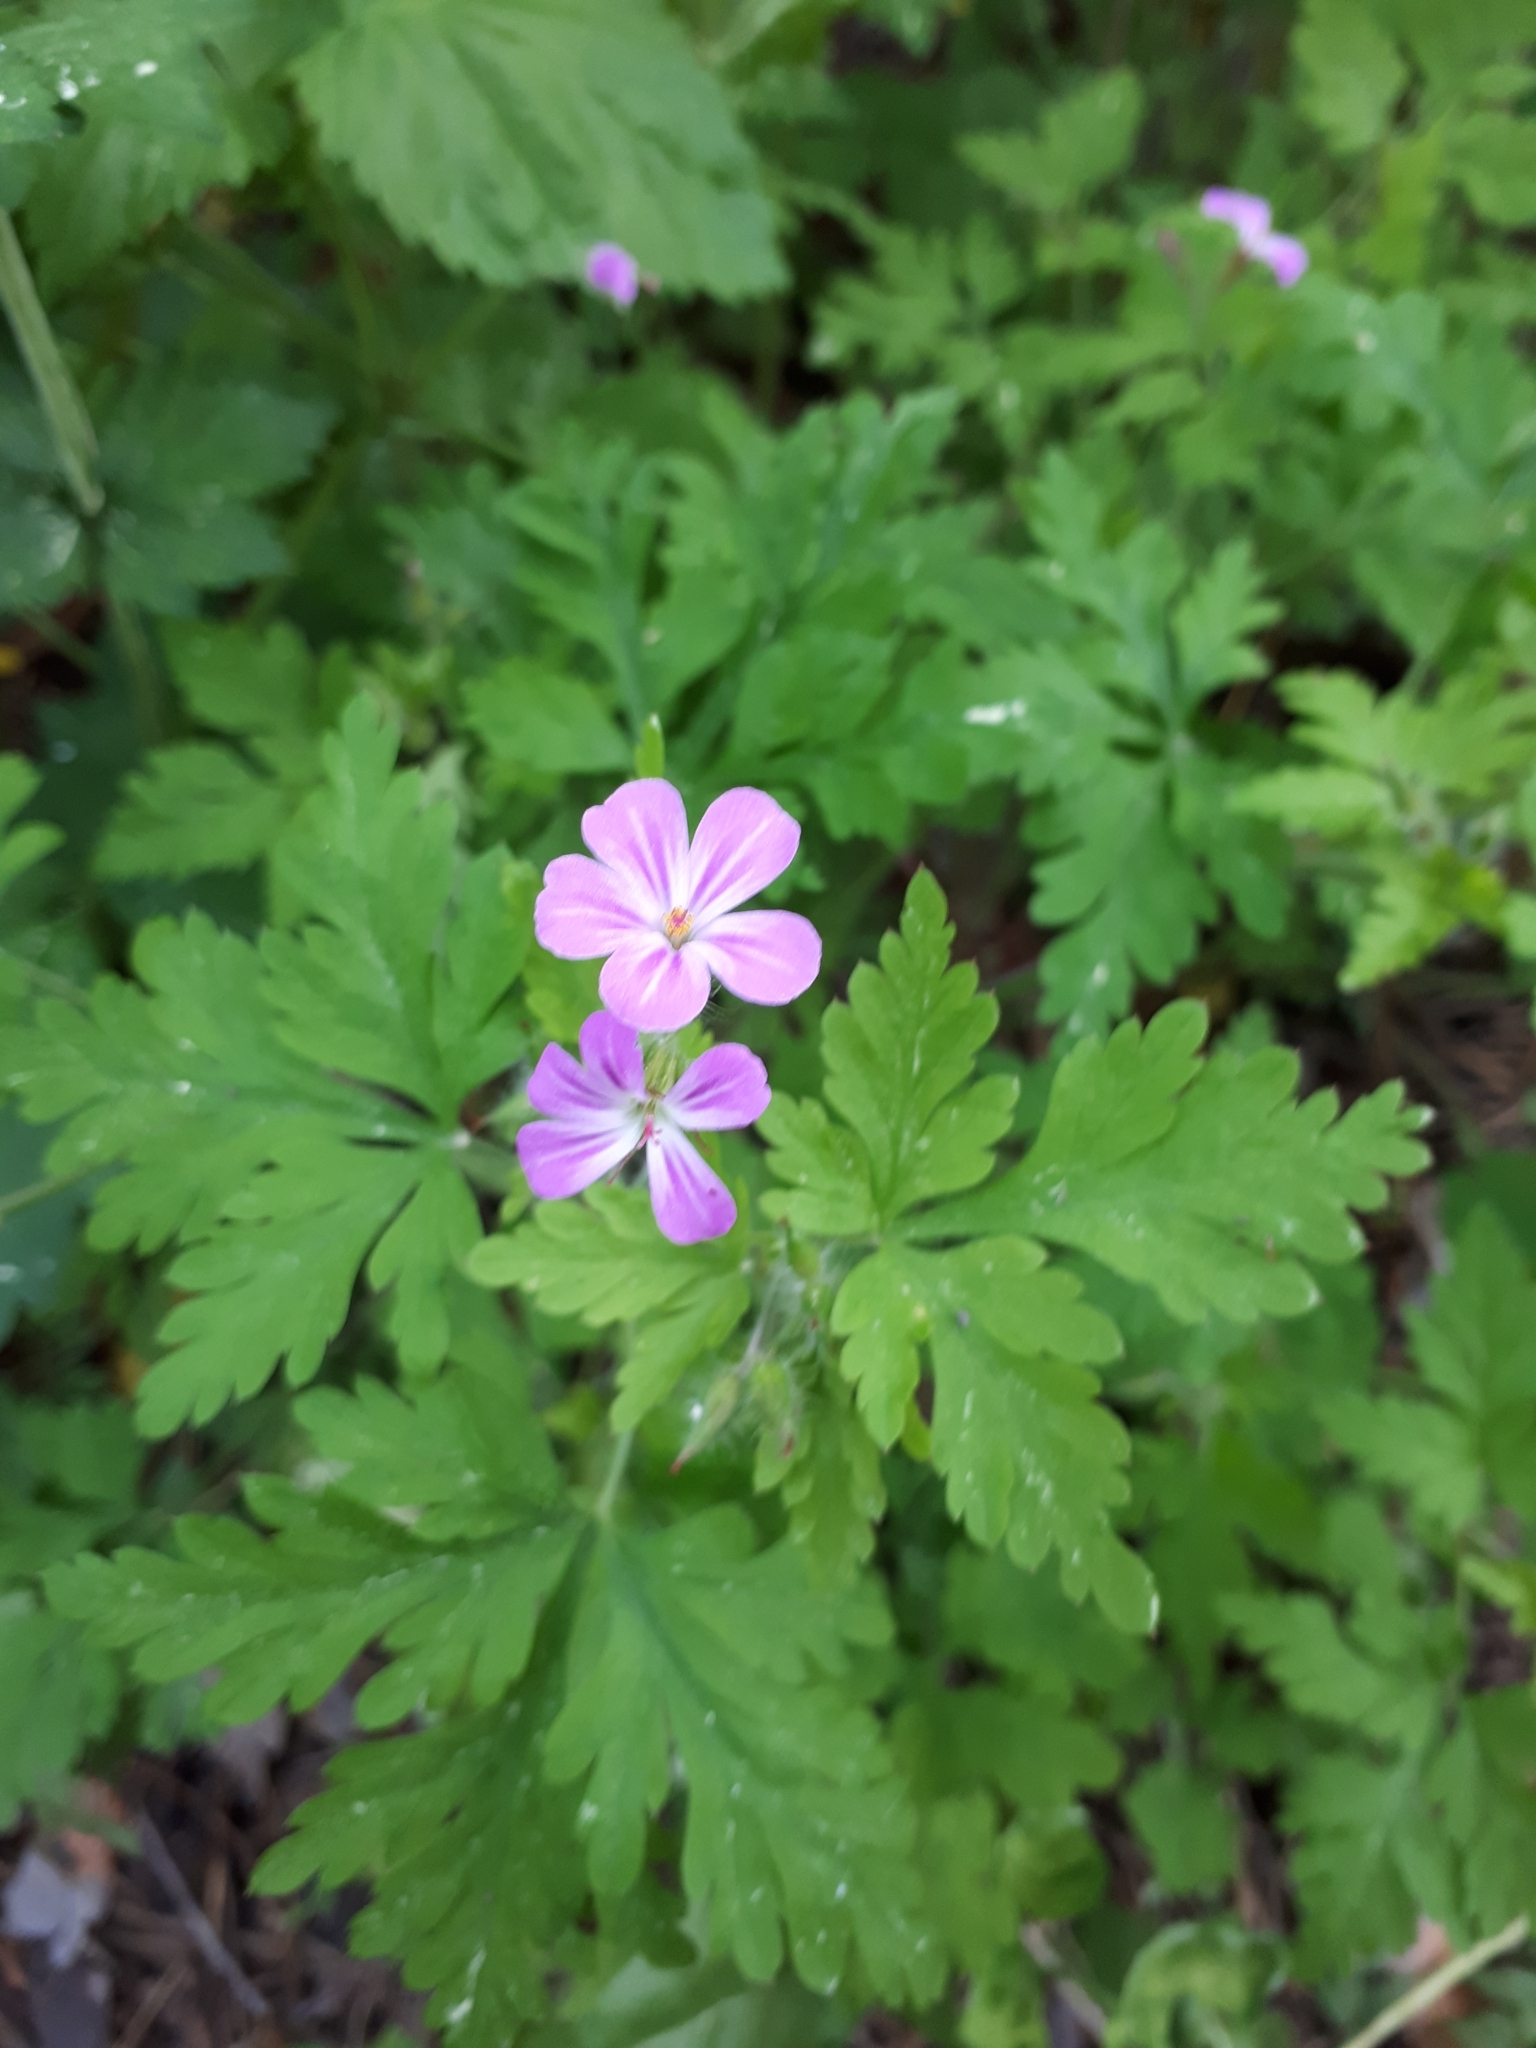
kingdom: Plantae
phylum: Tracheophyta
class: Magnoliopsida
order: Geraniales
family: Geraniaceae
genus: Geranium
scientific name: Geranium robertianum
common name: Herb-robert
